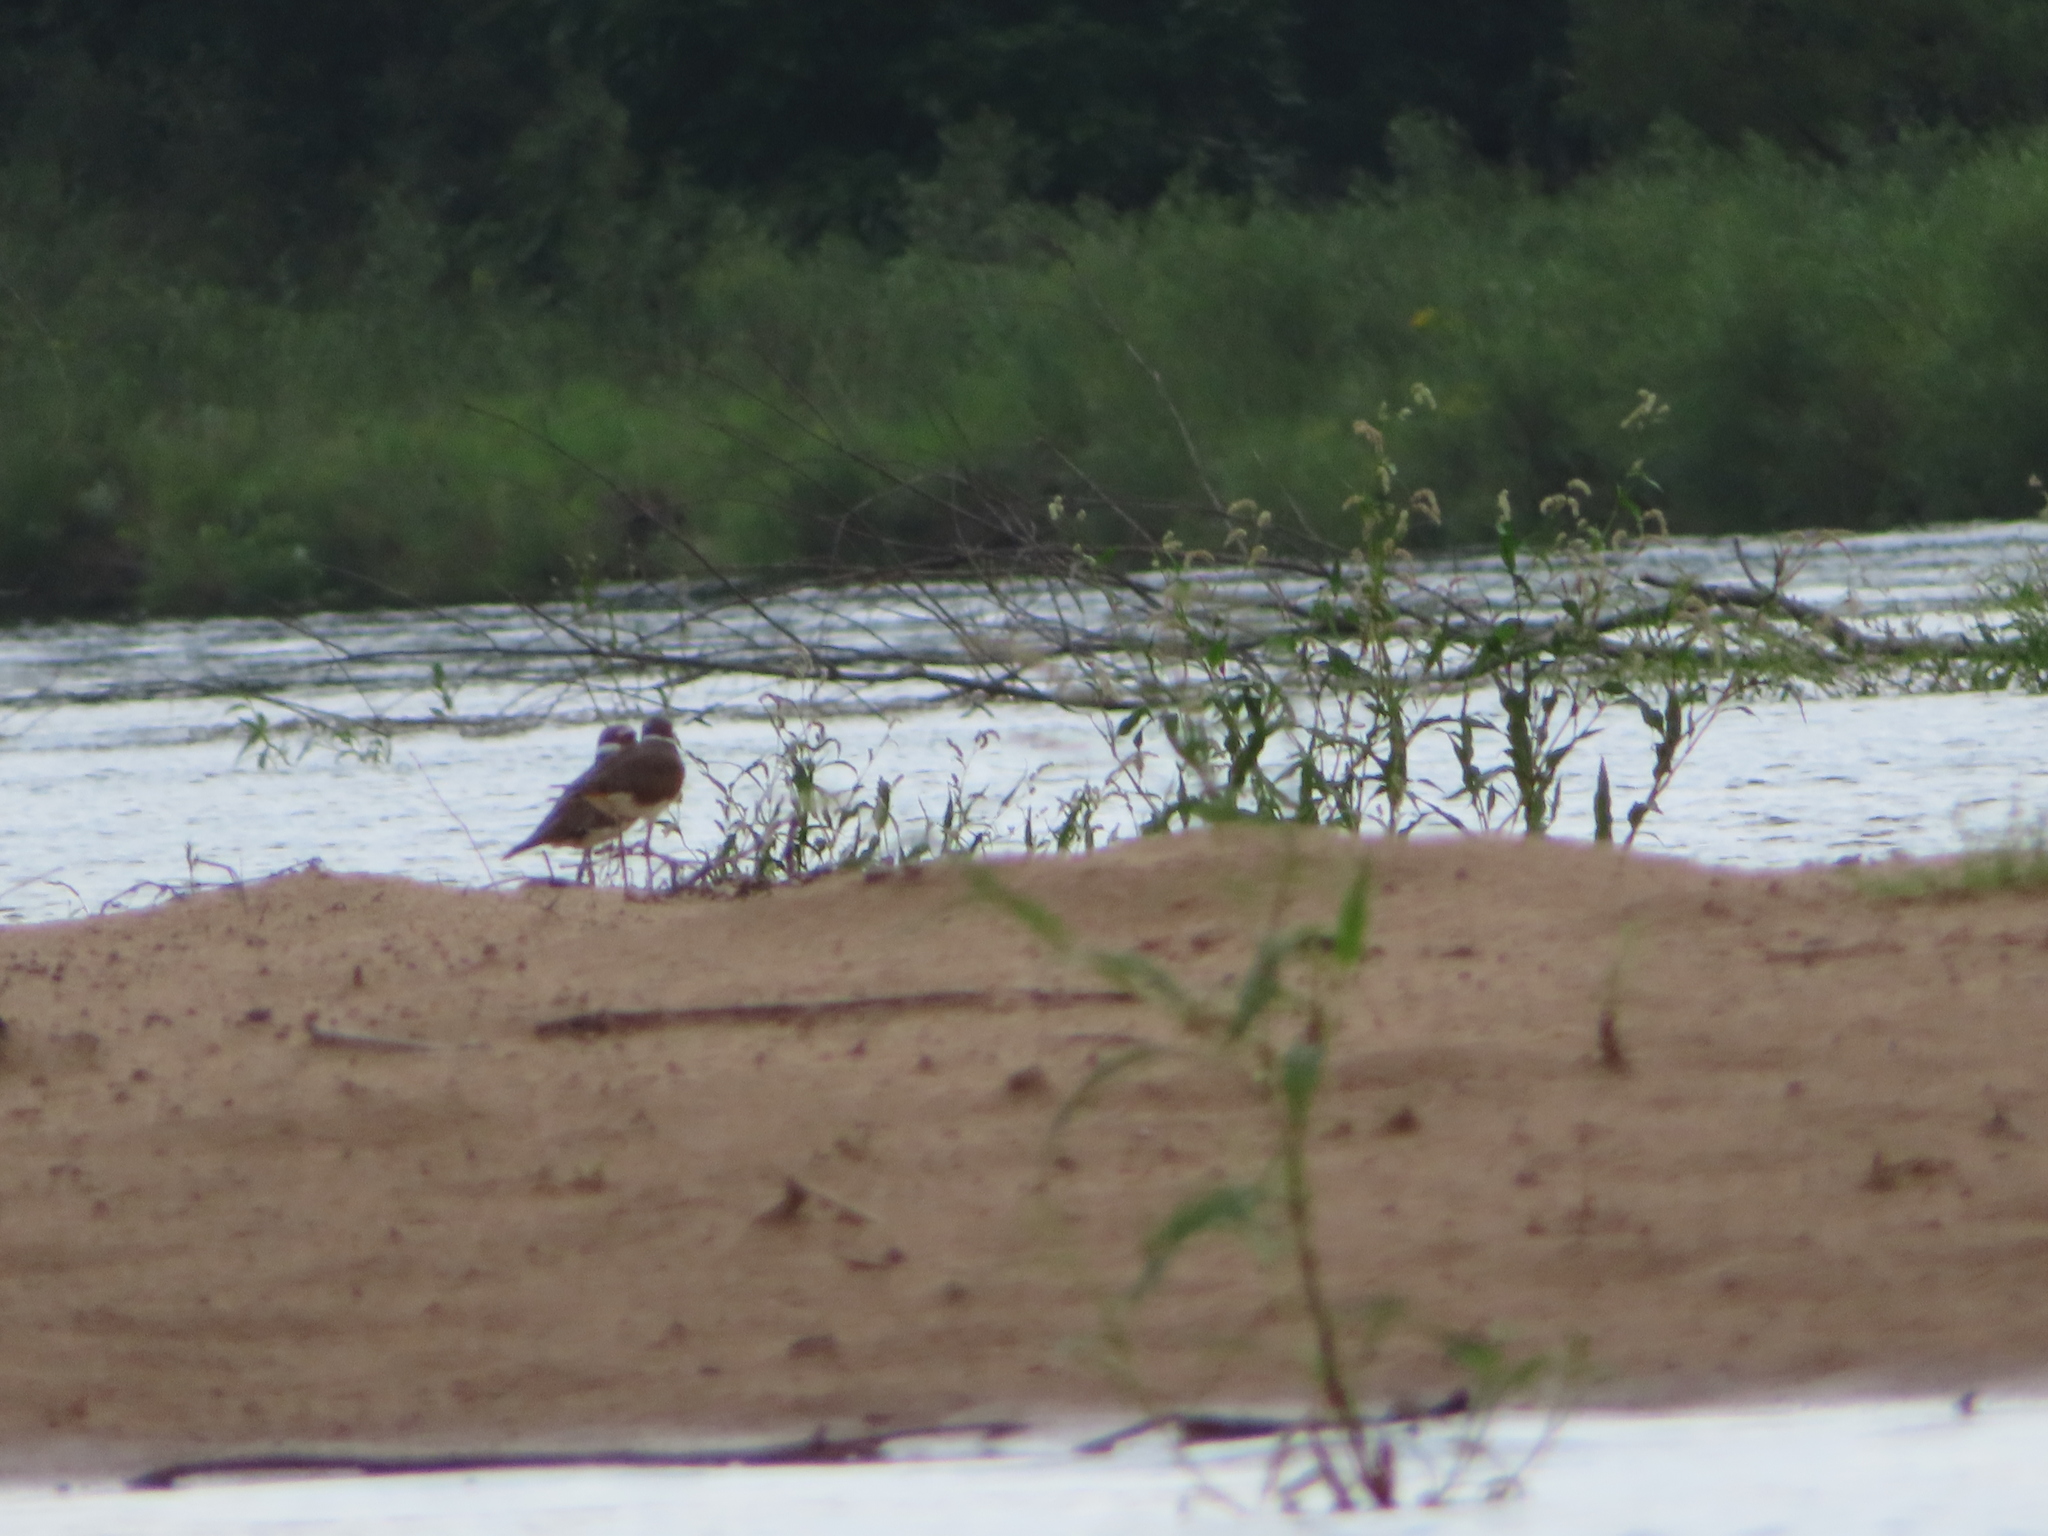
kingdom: Animalia
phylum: Chordata
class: Aves
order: Charadriiformes
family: Charadriidae
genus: Charadrius
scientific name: Charadrius vociferus
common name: Killdeer
